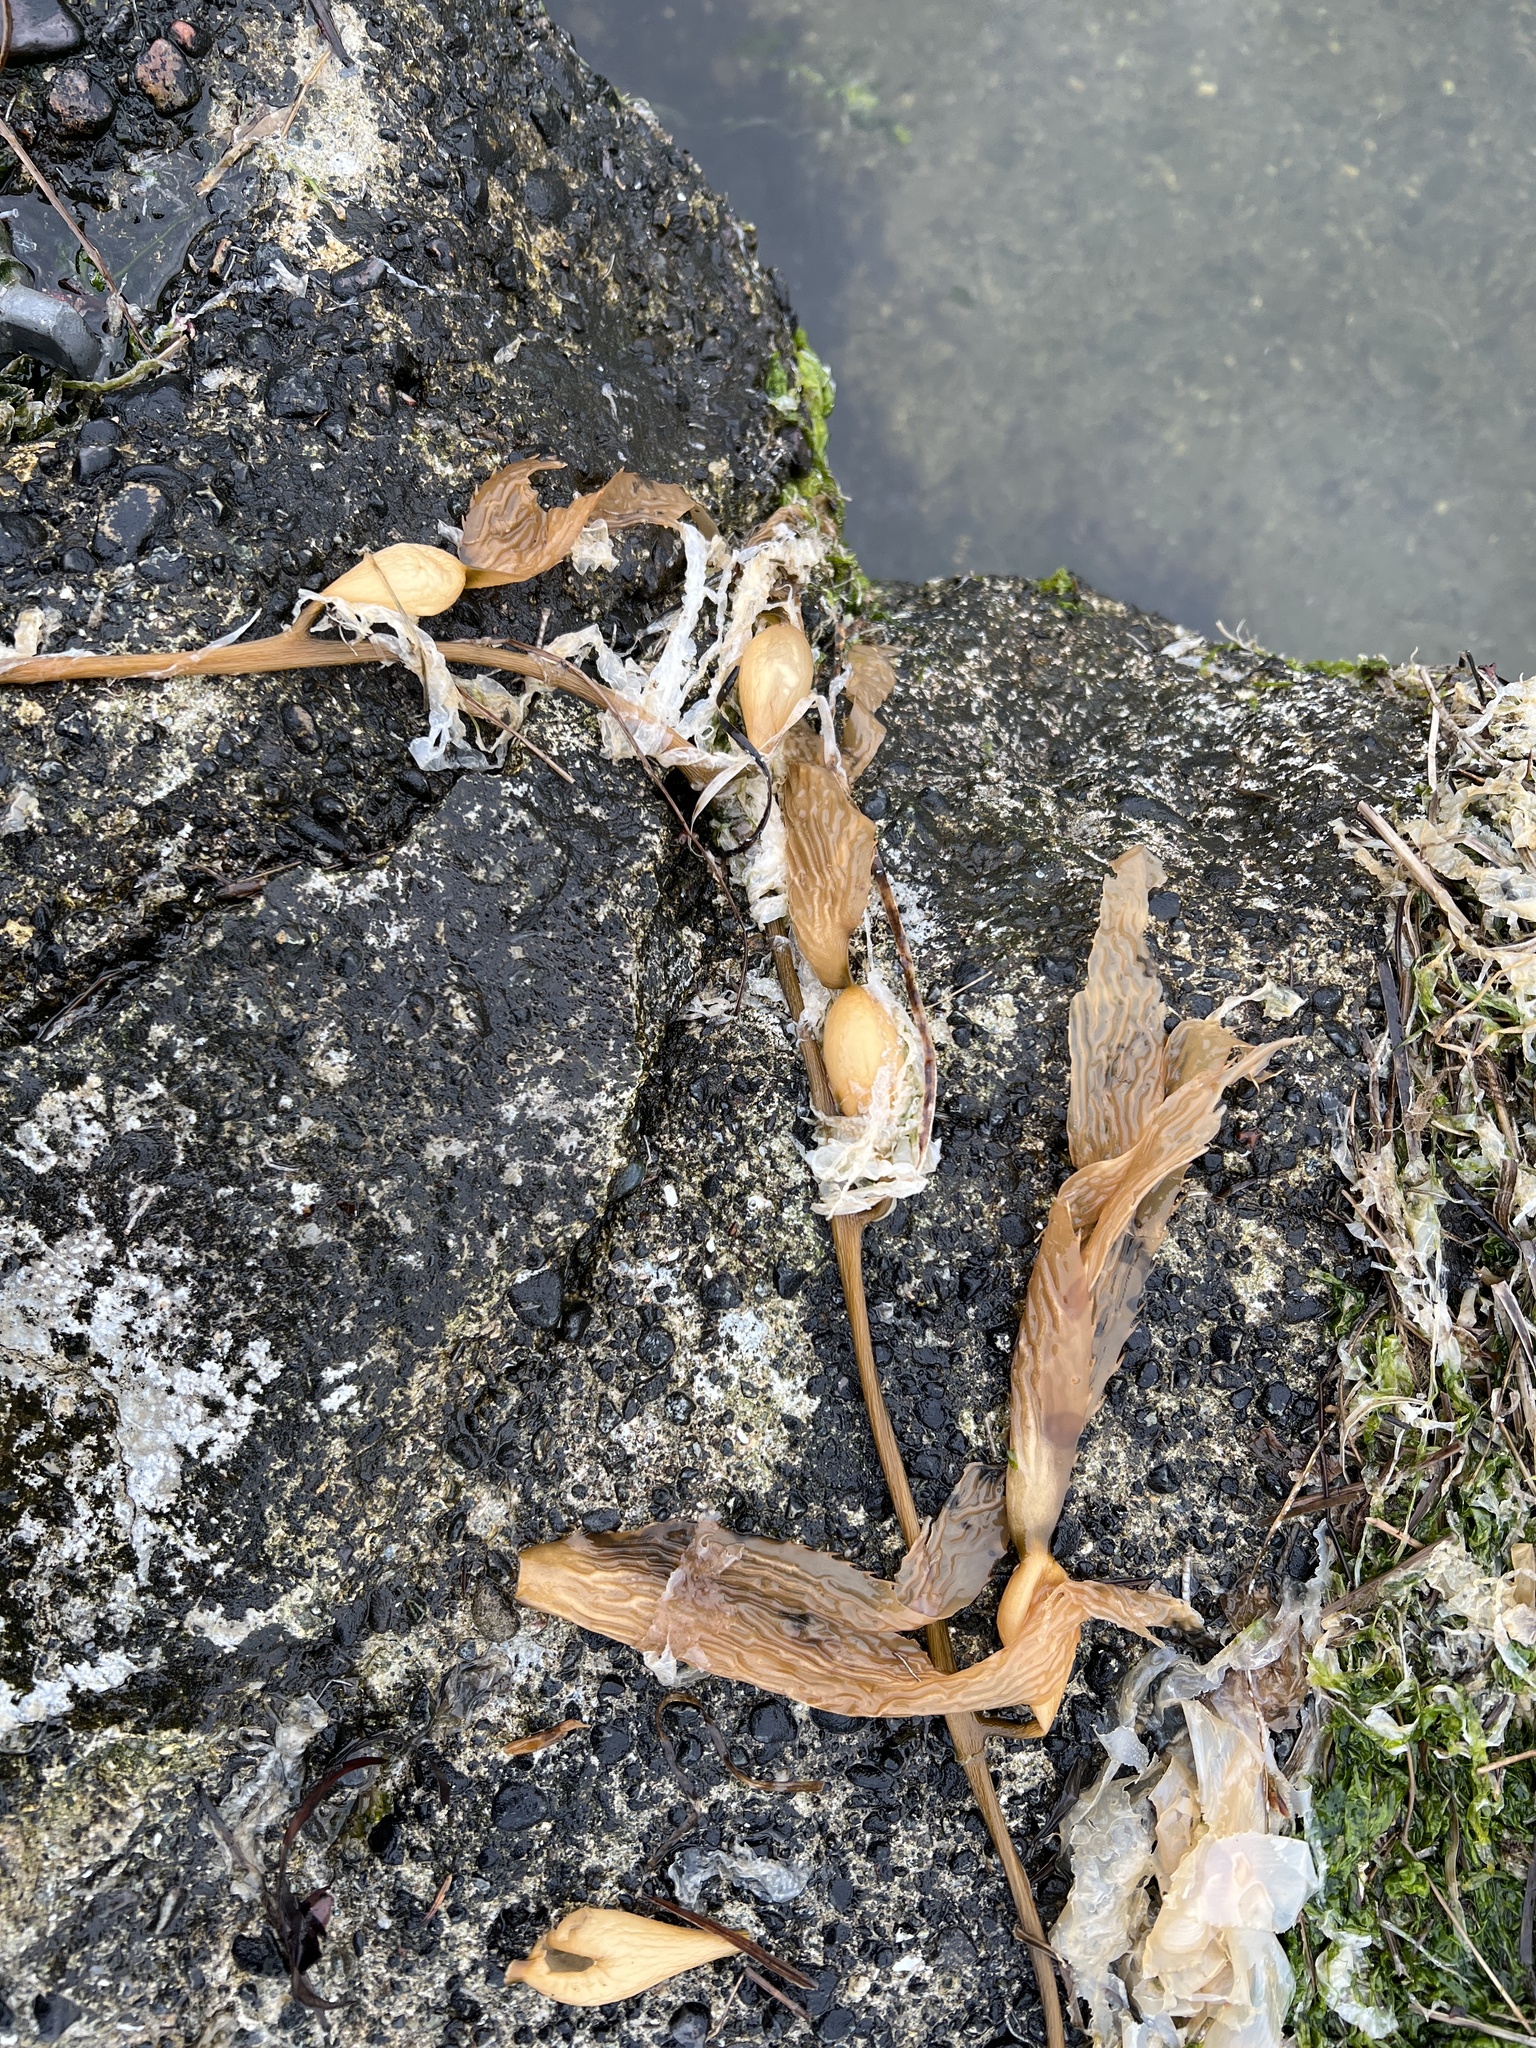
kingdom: Chromista
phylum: Ochrophyta
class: Phaeophyceae
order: Laminariales
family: Laminariaceae
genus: Macrocystis
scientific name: Macrocystis pyrifera
